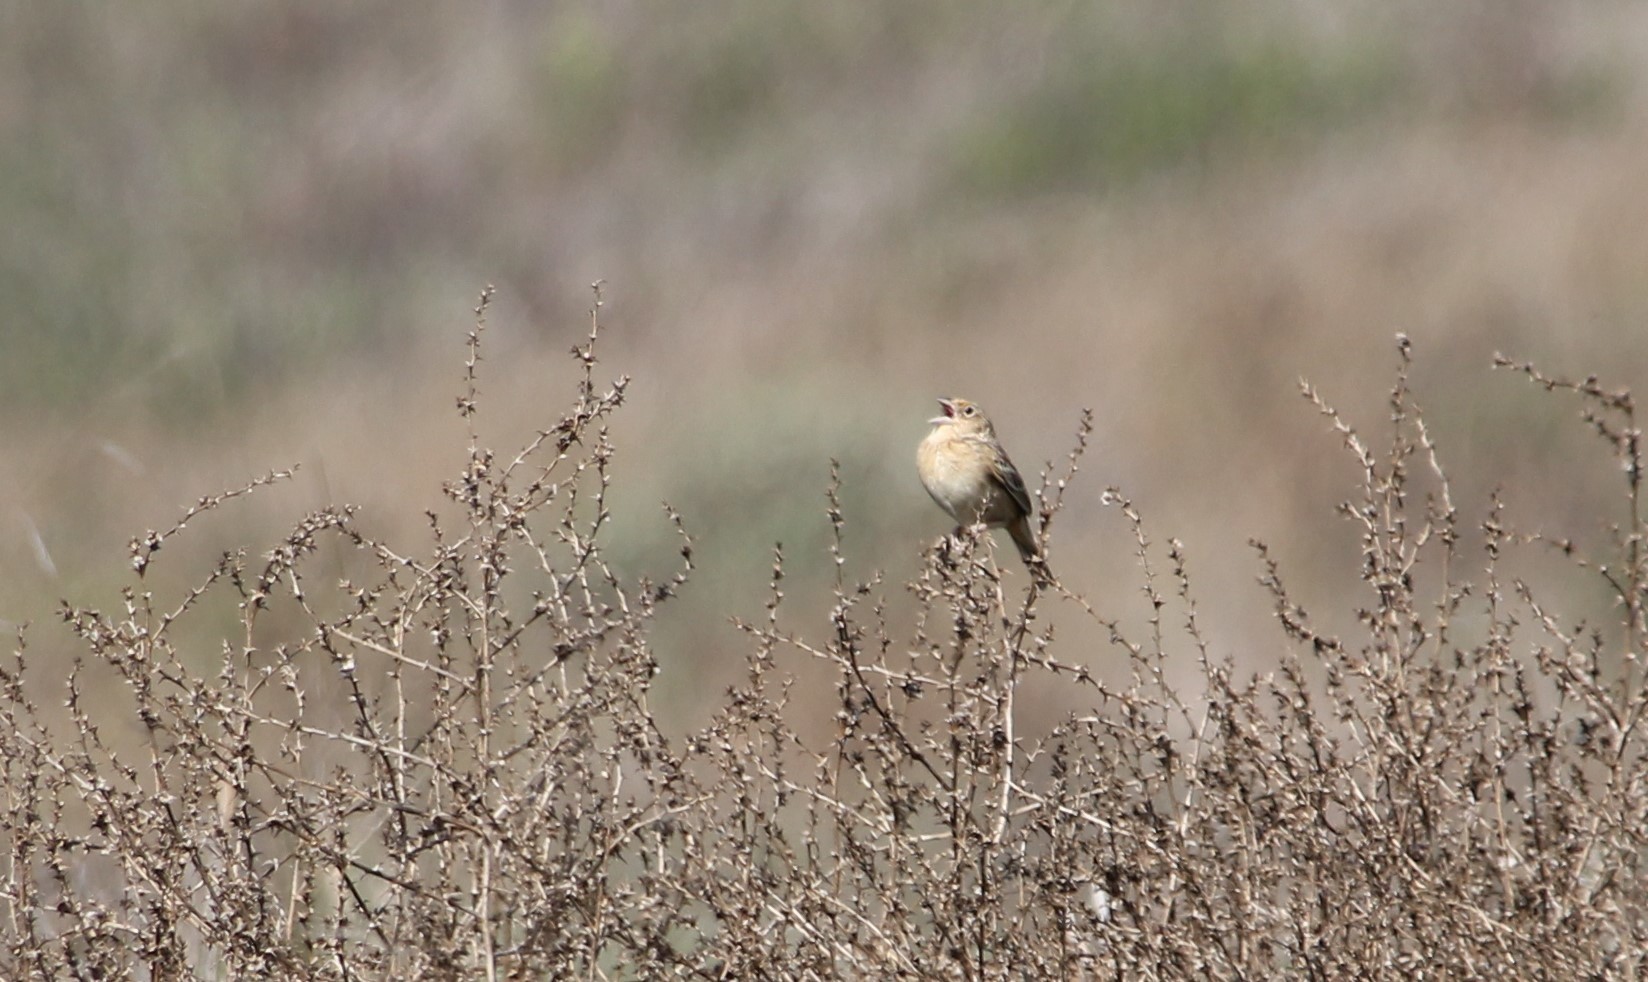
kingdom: Animalia
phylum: Chordata
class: Aves
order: Passeriformes
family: Passerellidae
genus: Ammodramus
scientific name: Ammodramus savannarum
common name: Grasshopper sparrow
